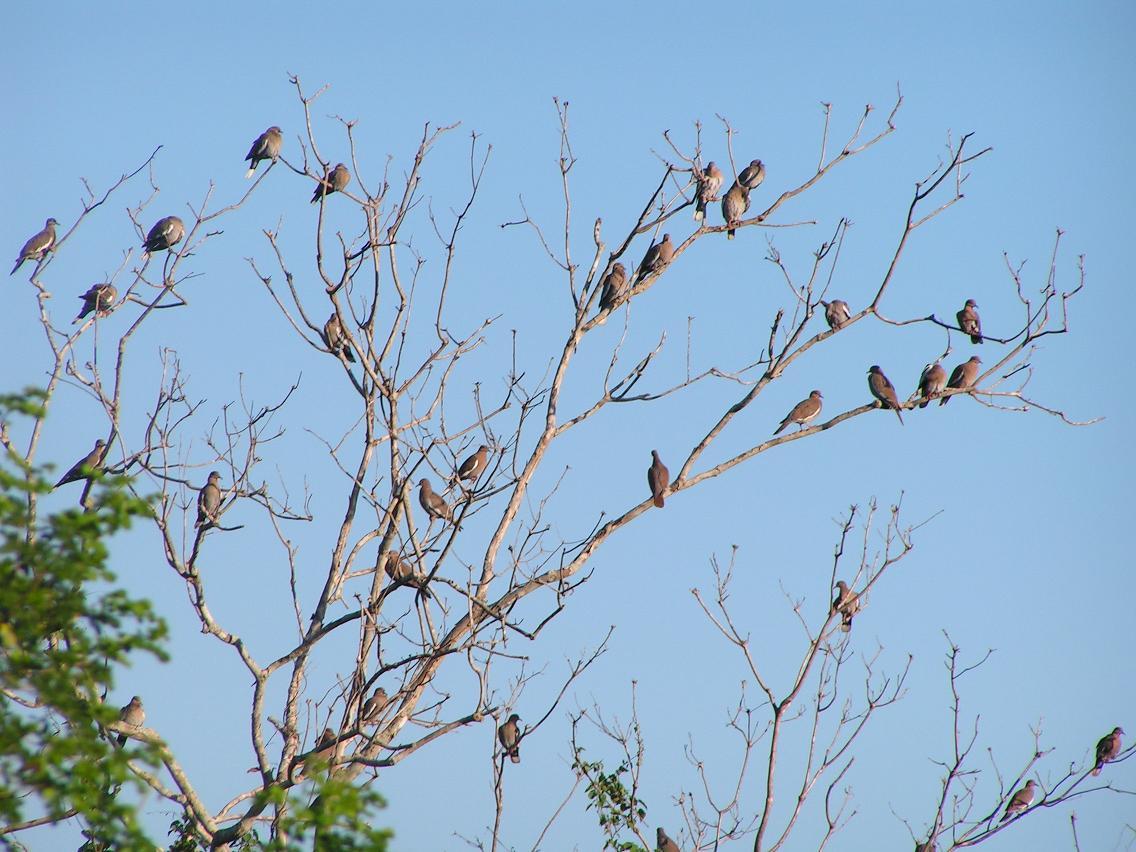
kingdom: Animalia
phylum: Chordata
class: Aves
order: Columbiformes
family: Columbidae
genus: Zenaida
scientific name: Zenaida asiatica
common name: White-winged dove
